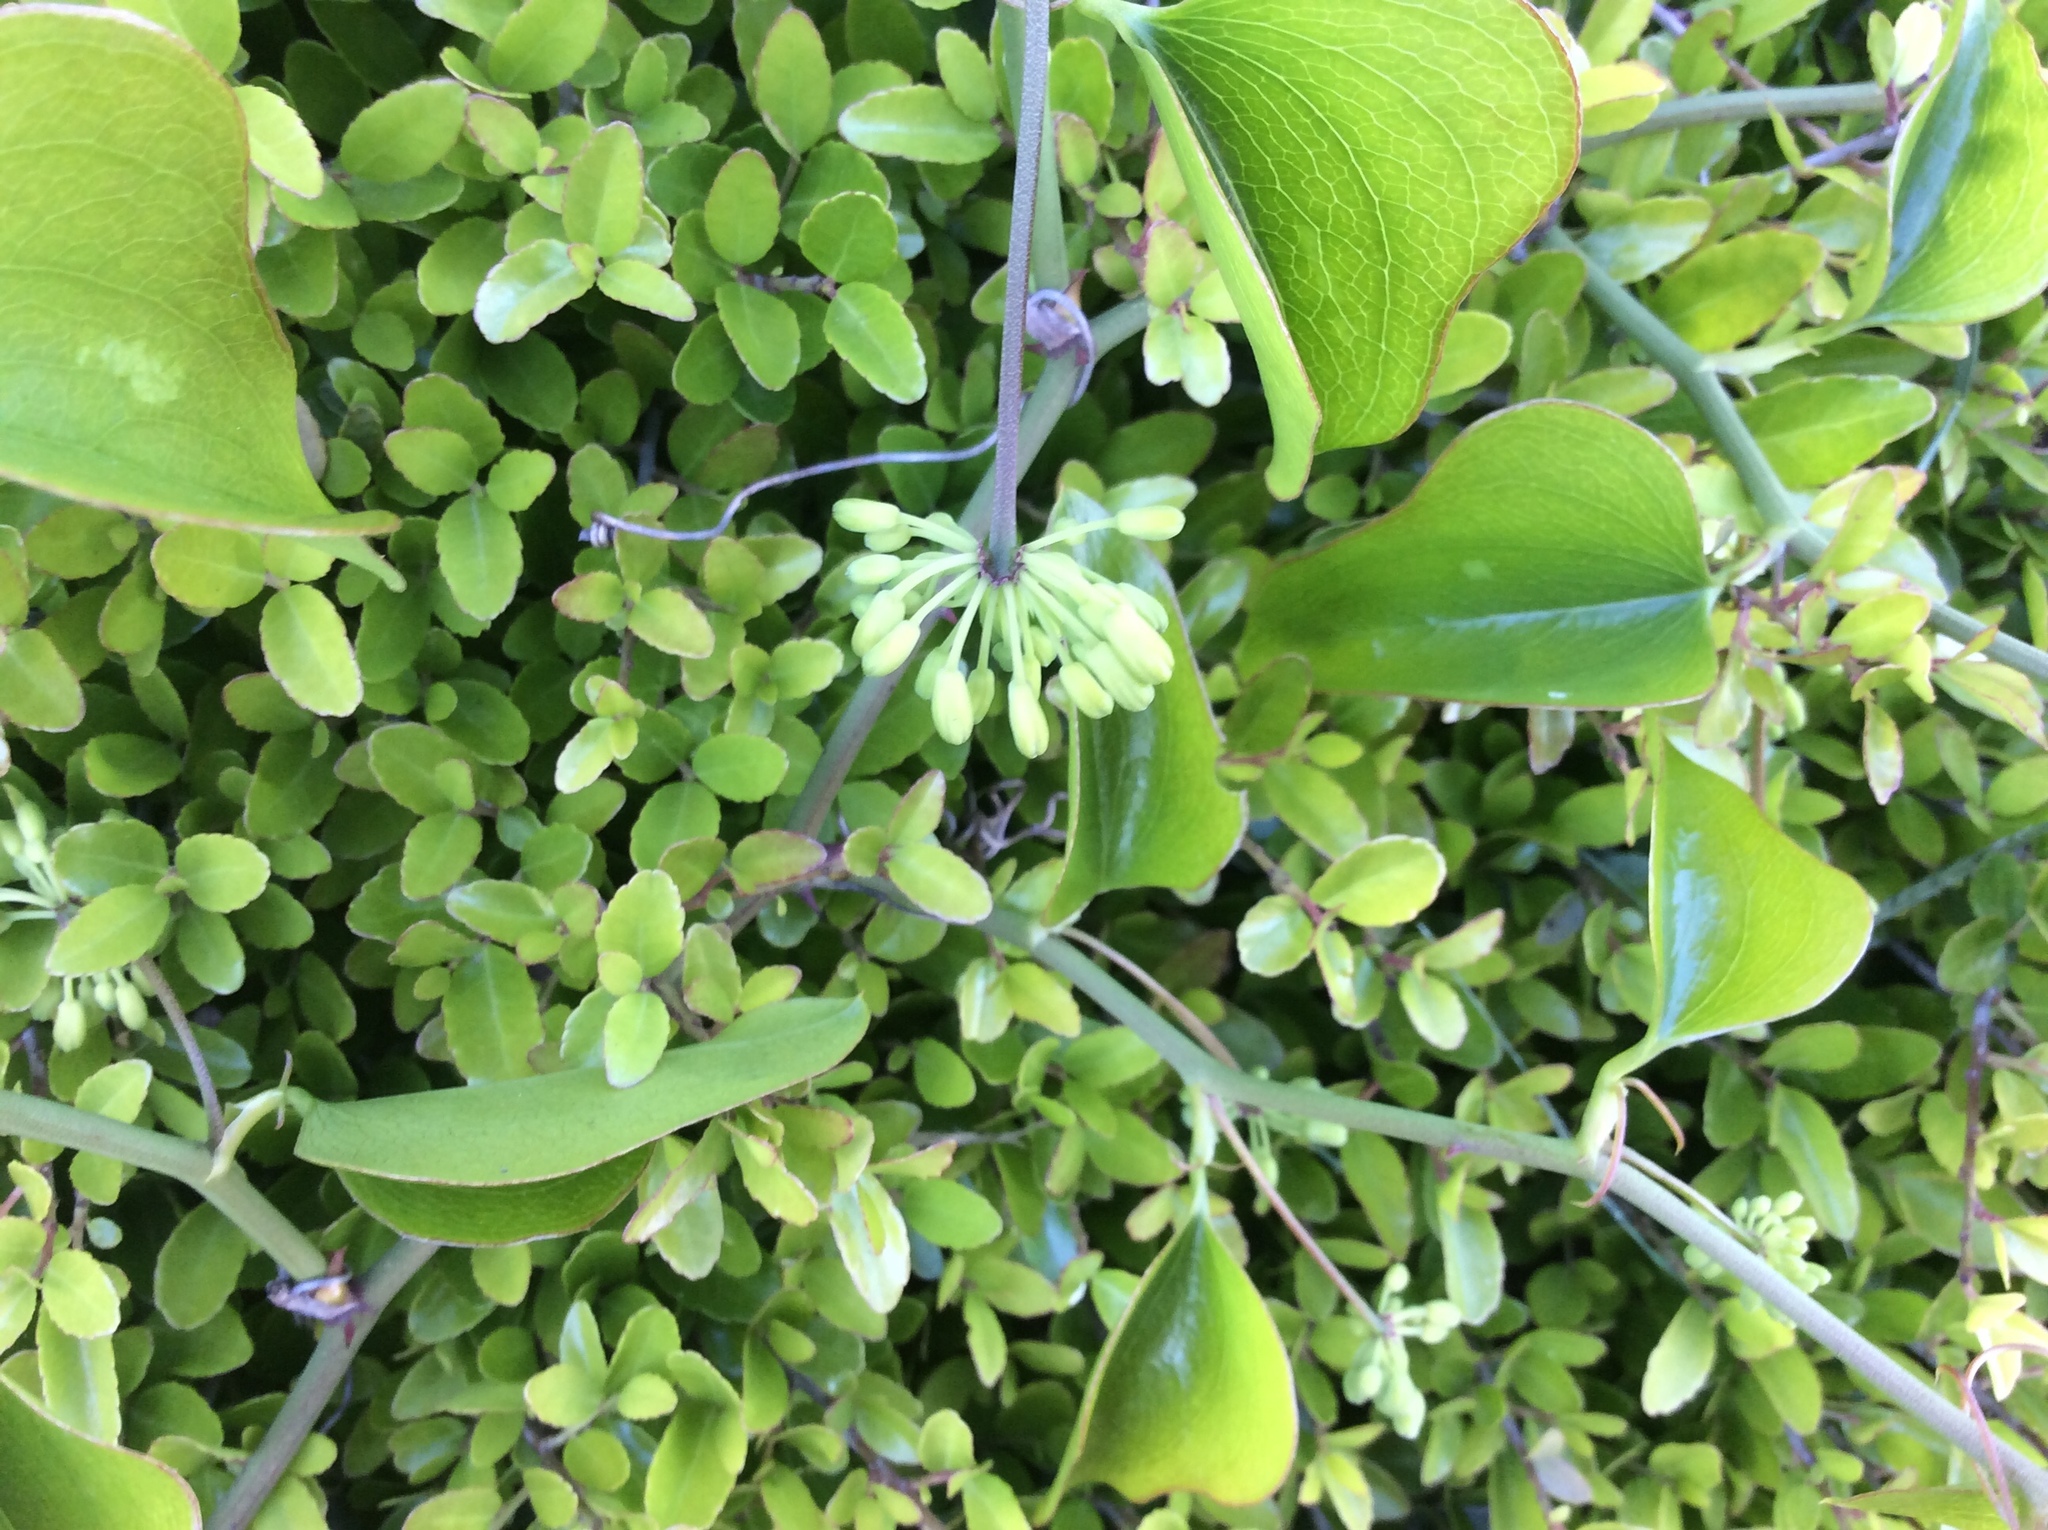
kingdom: Plantae
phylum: Tracheophyta
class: Liliopsida
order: Liliales
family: Smilacaceae
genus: Smilax
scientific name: Smilax bona-nox
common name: Catbrier
